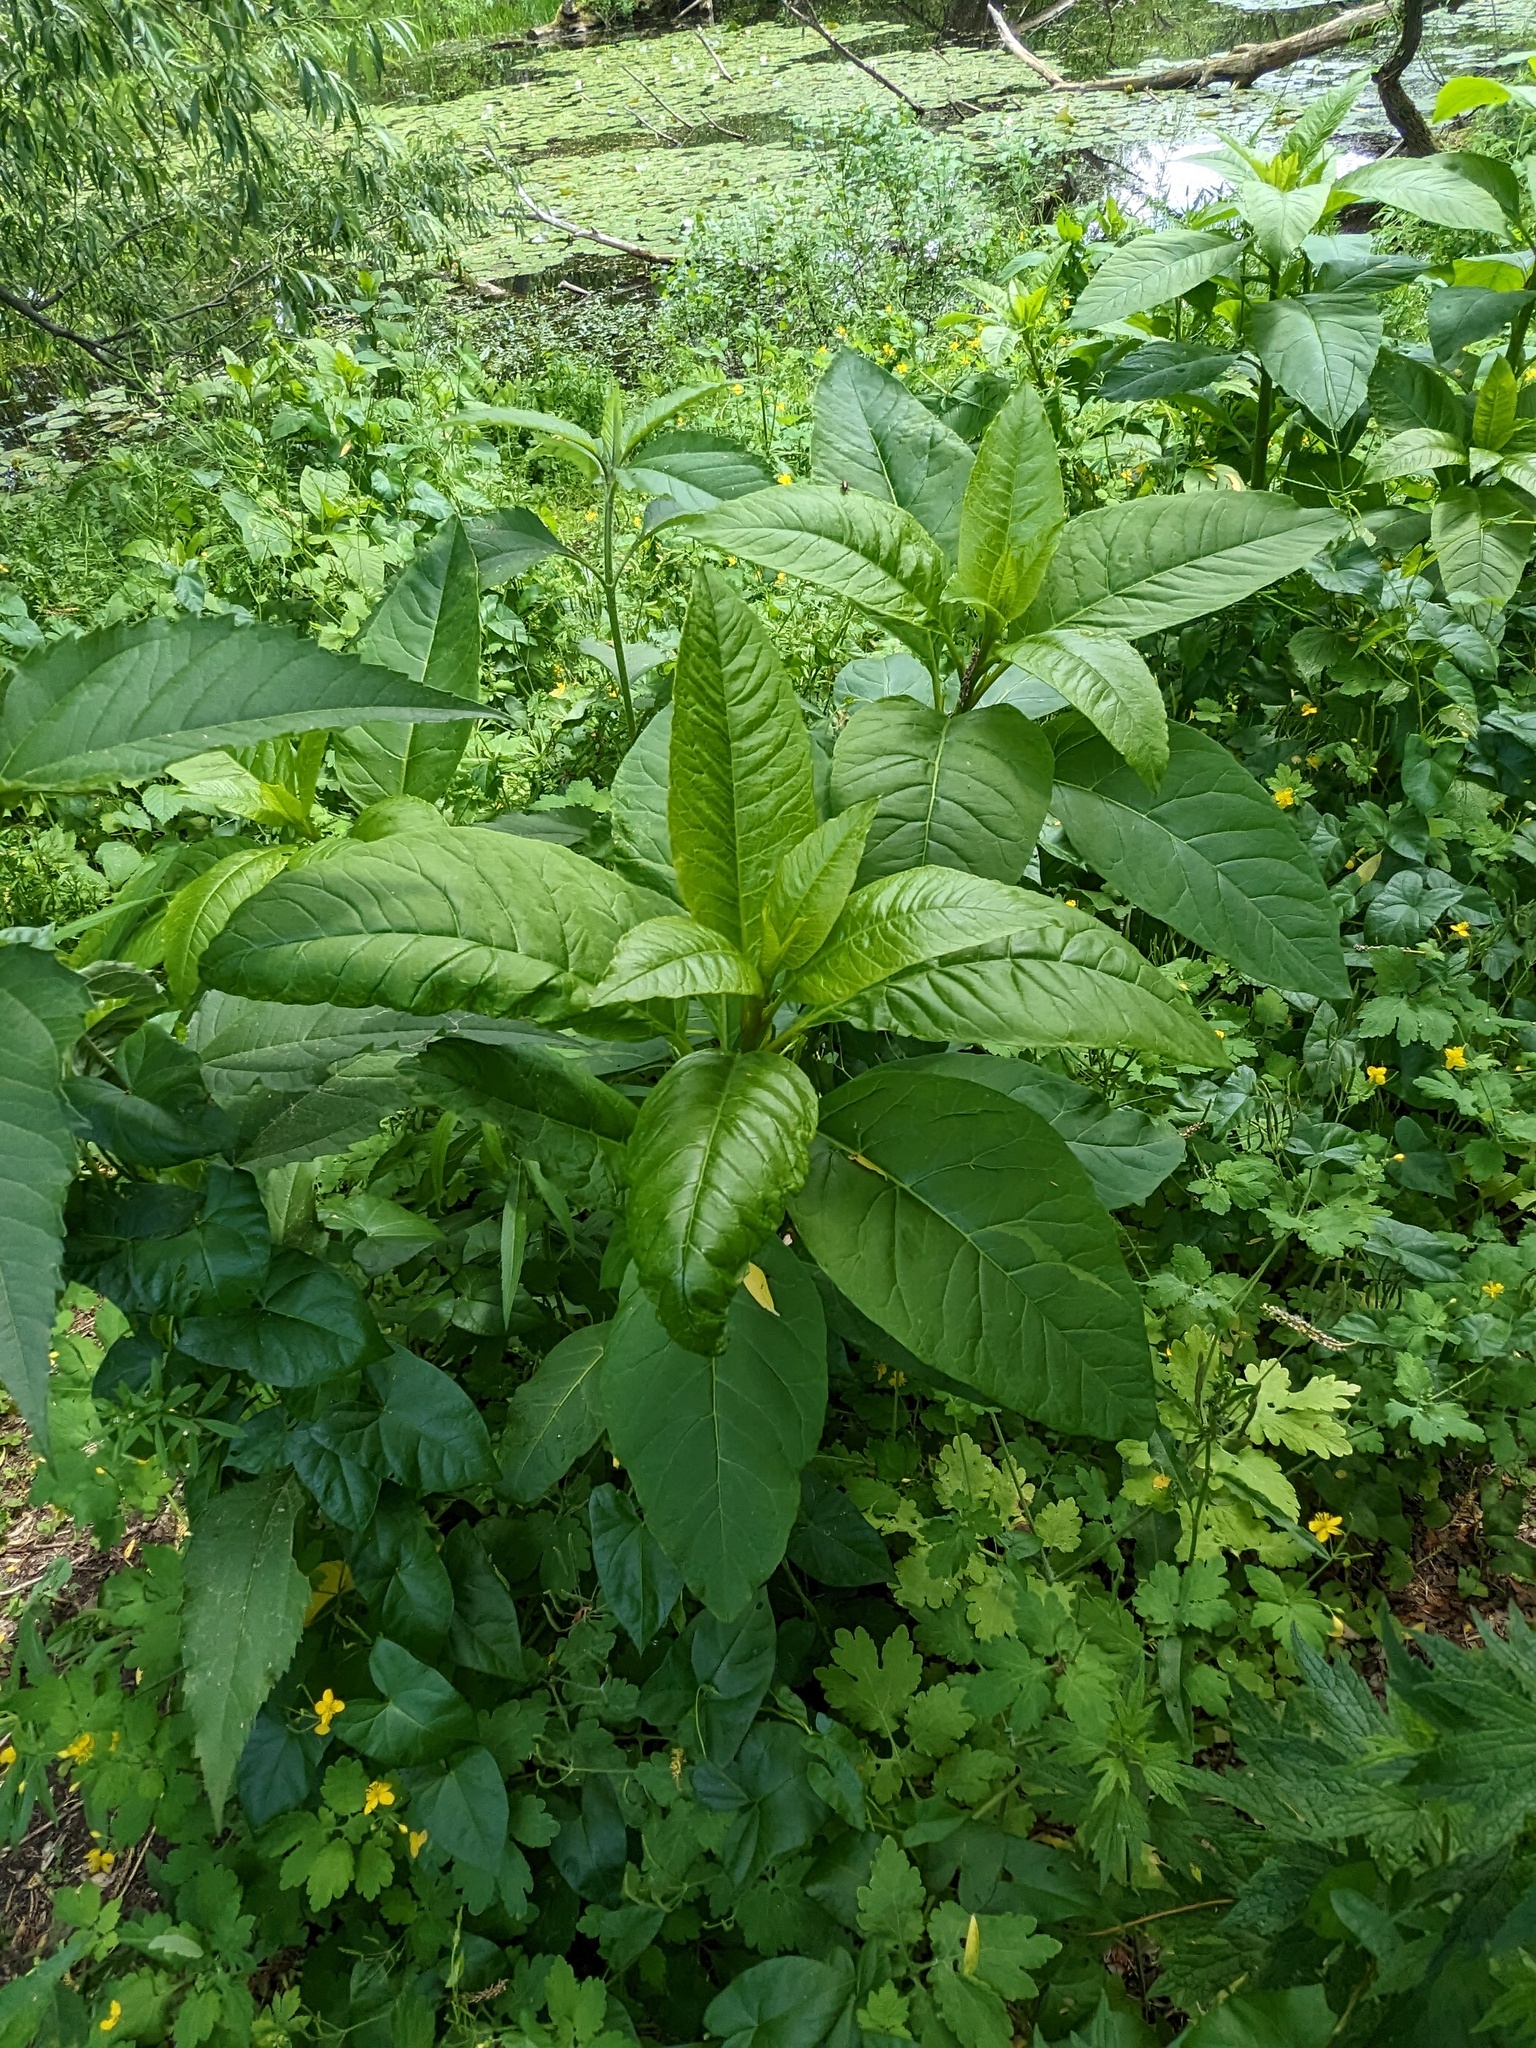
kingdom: Plantae
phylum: Tracheophyta
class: Magnoliopsida
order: Caryophyllales
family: Phytolaccaceae
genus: Phytolacca
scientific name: Phytolacca americana
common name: American pokeweed
